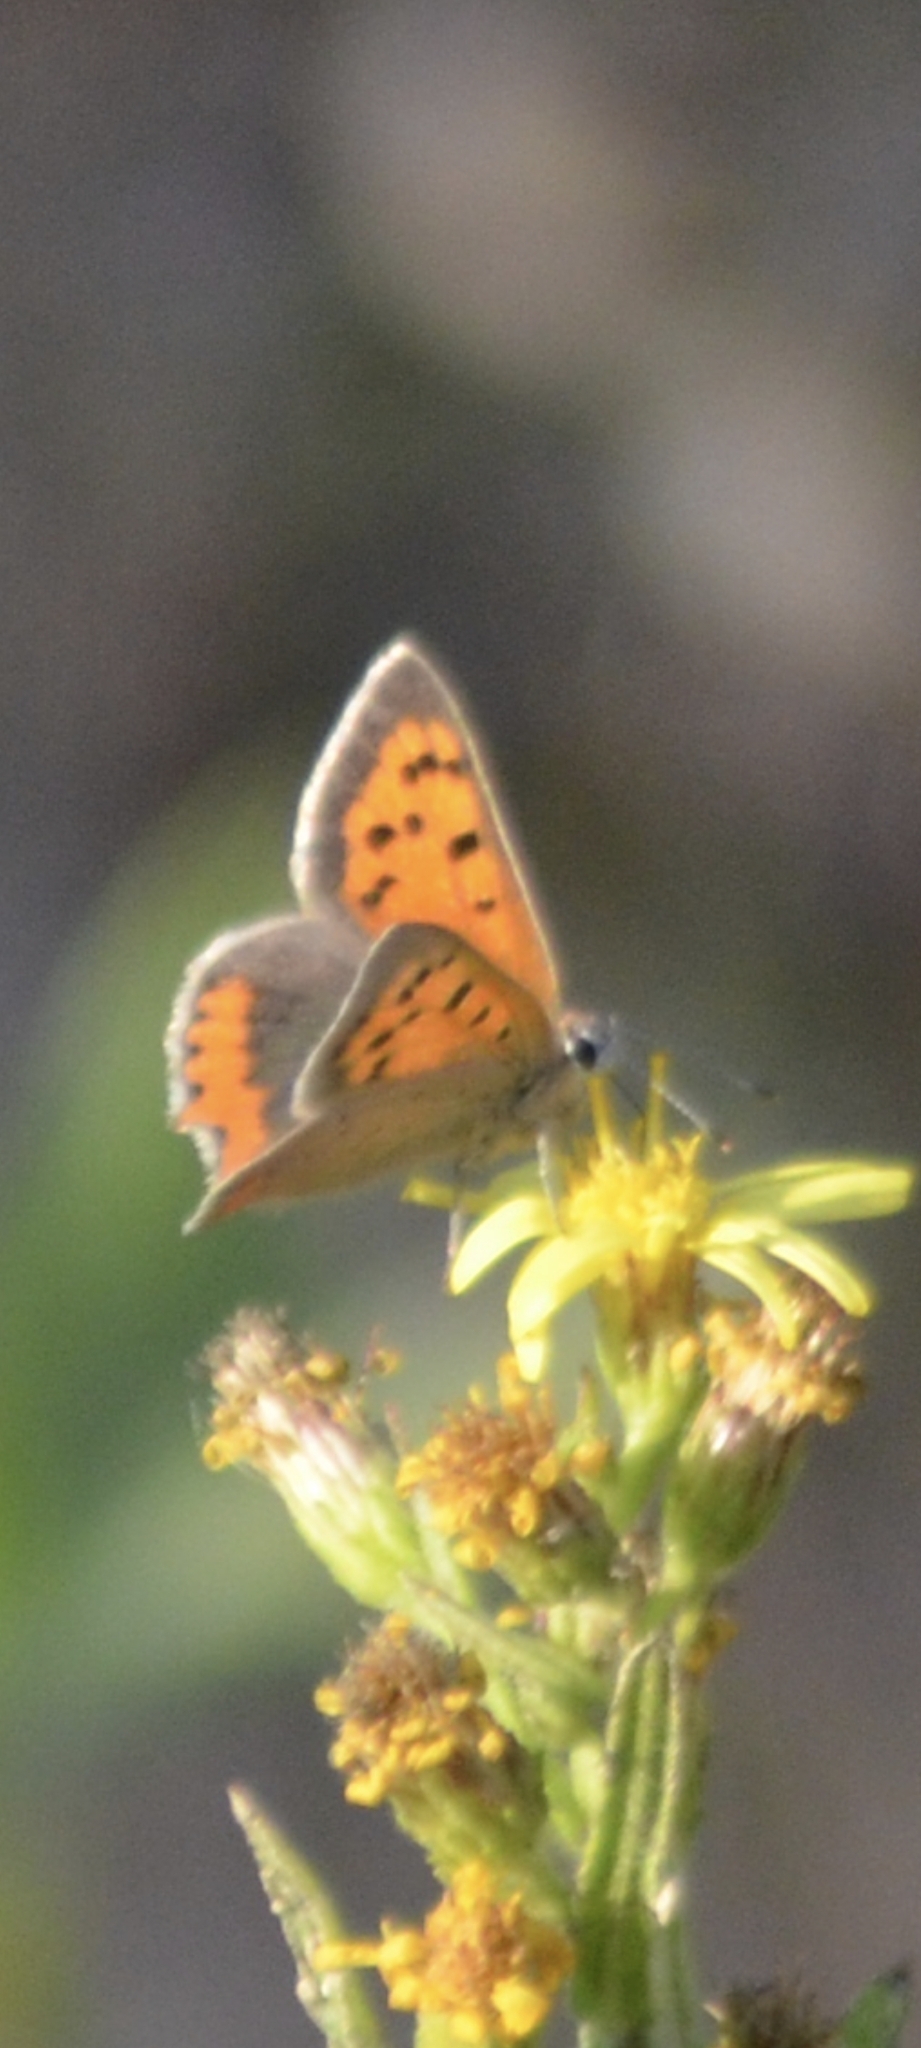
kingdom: Animalia
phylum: Arthropoda
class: Insecta
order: Lepidoptera
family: Lycaenidae
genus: Lycaena
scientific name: Lycaena phlaeas
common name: Small copper
